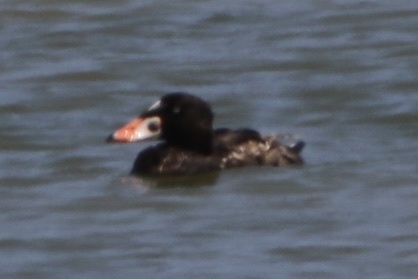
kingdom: Animalia
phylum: Chordata
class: Aves
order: Anseriformes
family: Anatidae
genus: Melanitta
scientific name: Melanitta perspicillata
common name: Surf scoter
